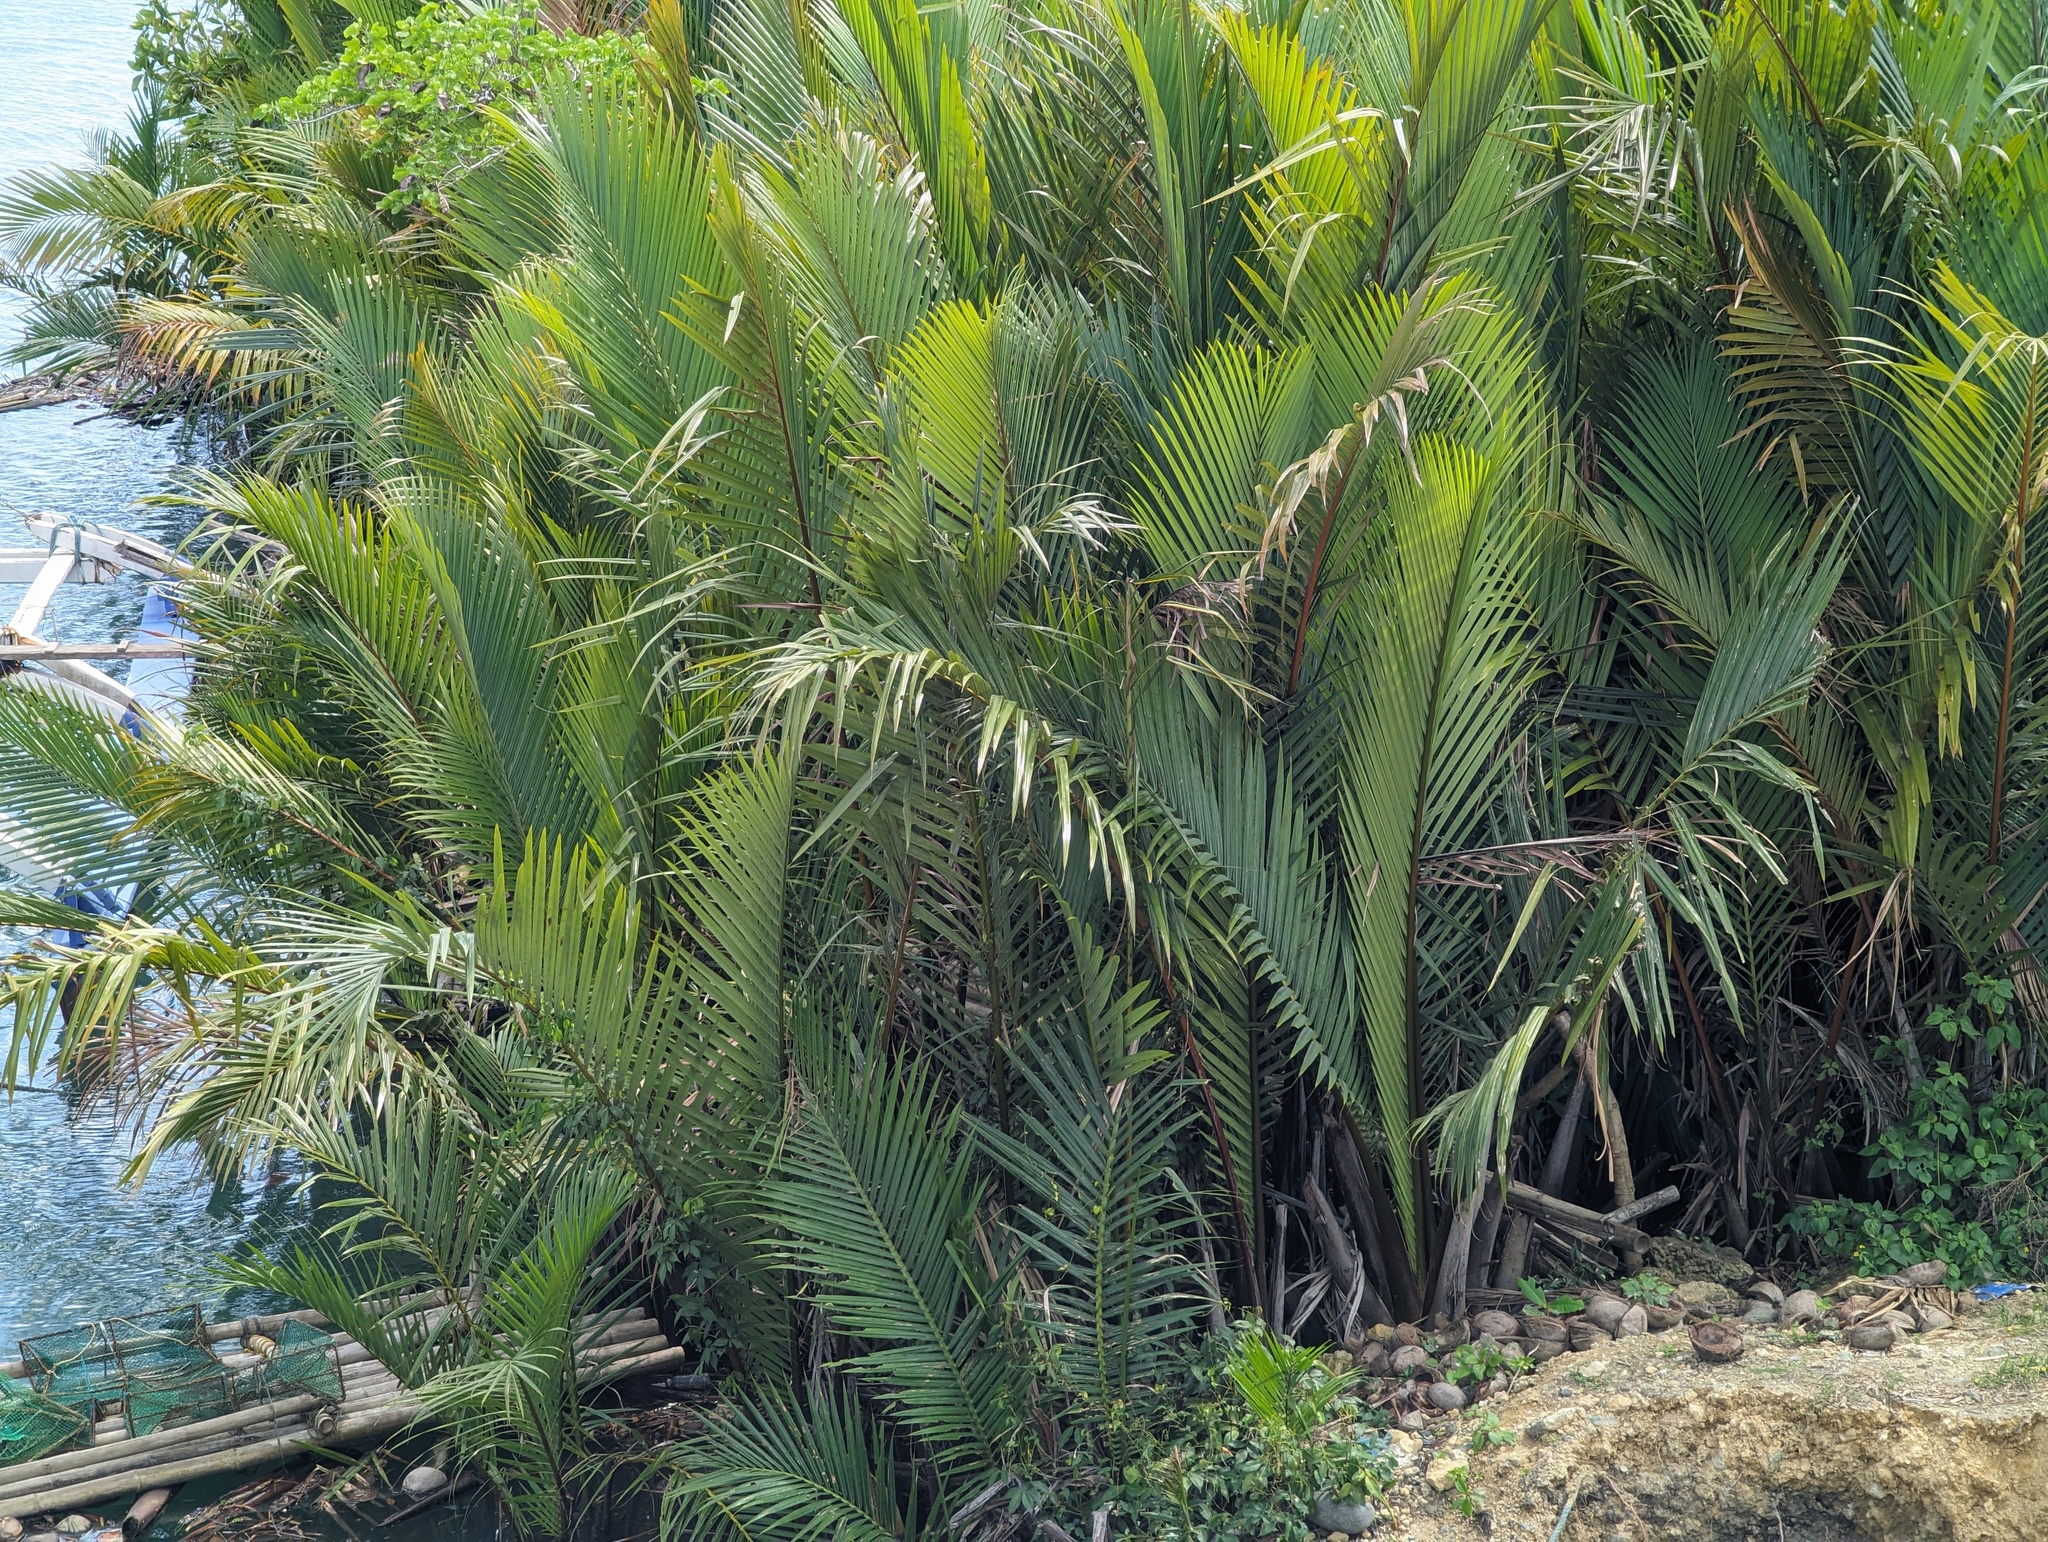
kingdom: Plantae
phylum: Tracheophyta
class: Liliopsida
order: Arecales
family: Arecaceae
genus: Nypa
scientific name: Nypa fruticans
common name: Mangrove palm
